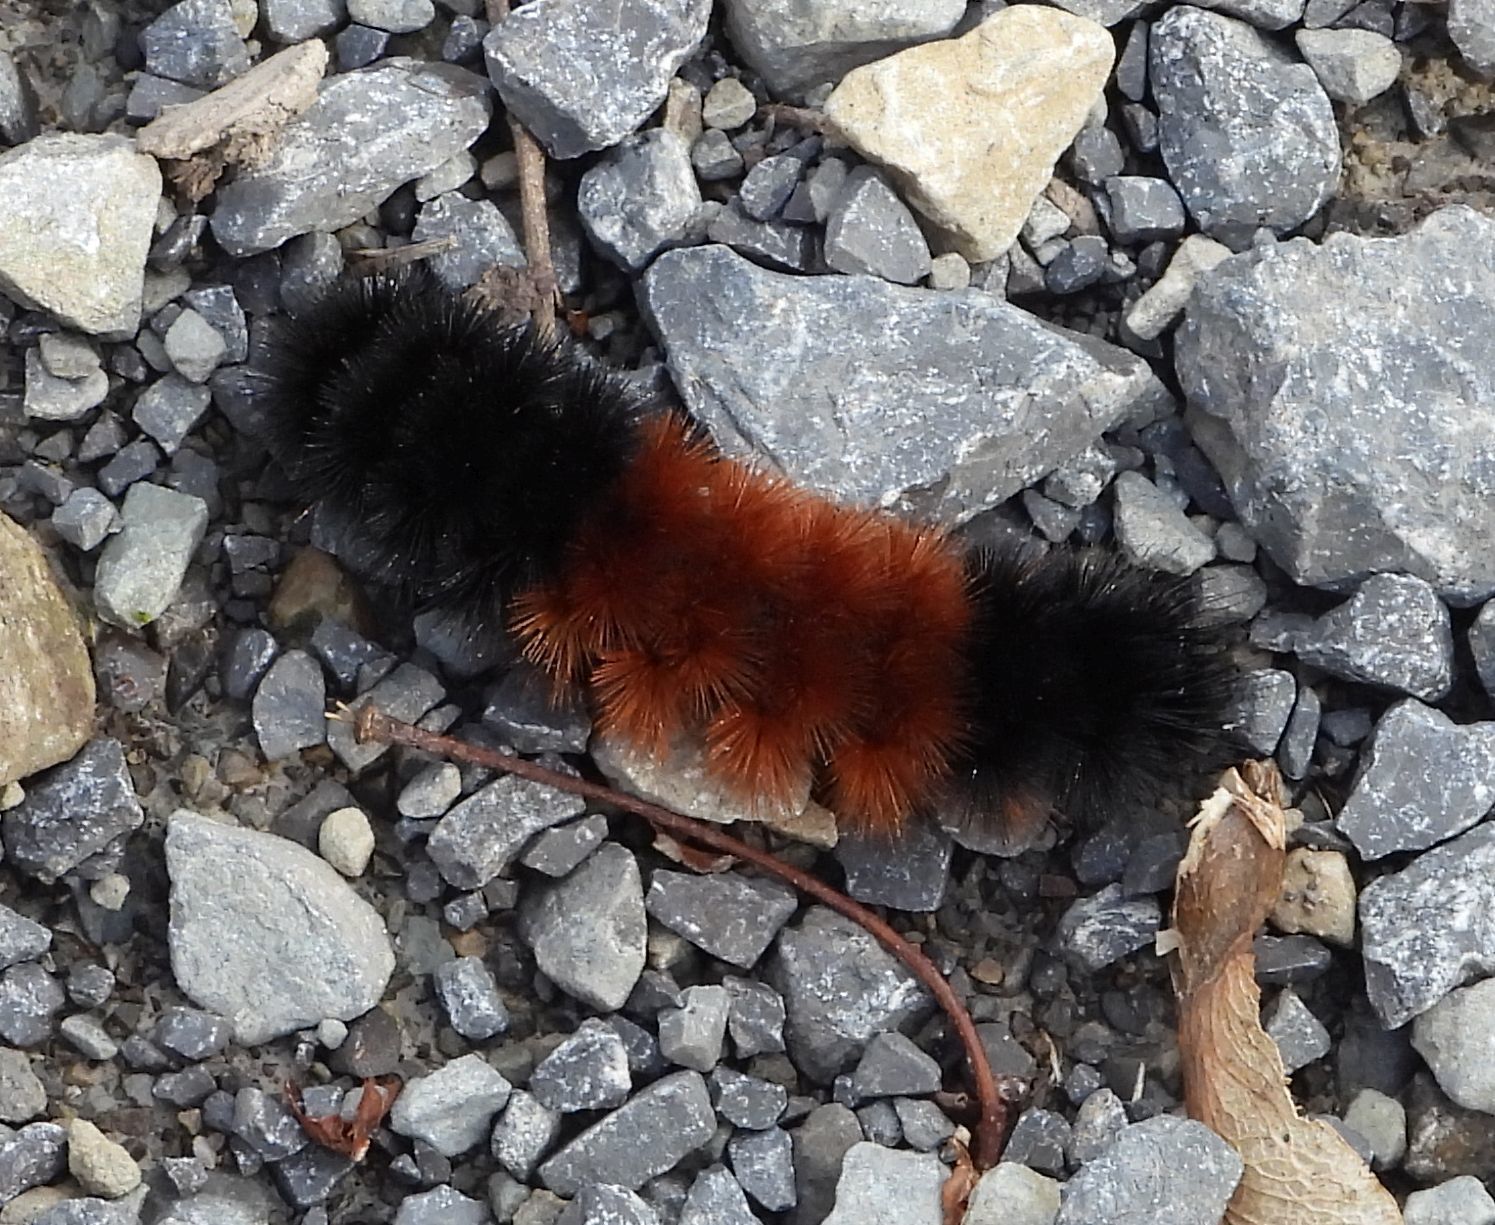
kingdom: Animalia
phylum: Arthropoda
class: Insecta
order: Lepidoptera
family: Erebidae
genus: Pyrrharctia
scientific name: Pyrrharctia isabella
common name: Isabella tiger moth
